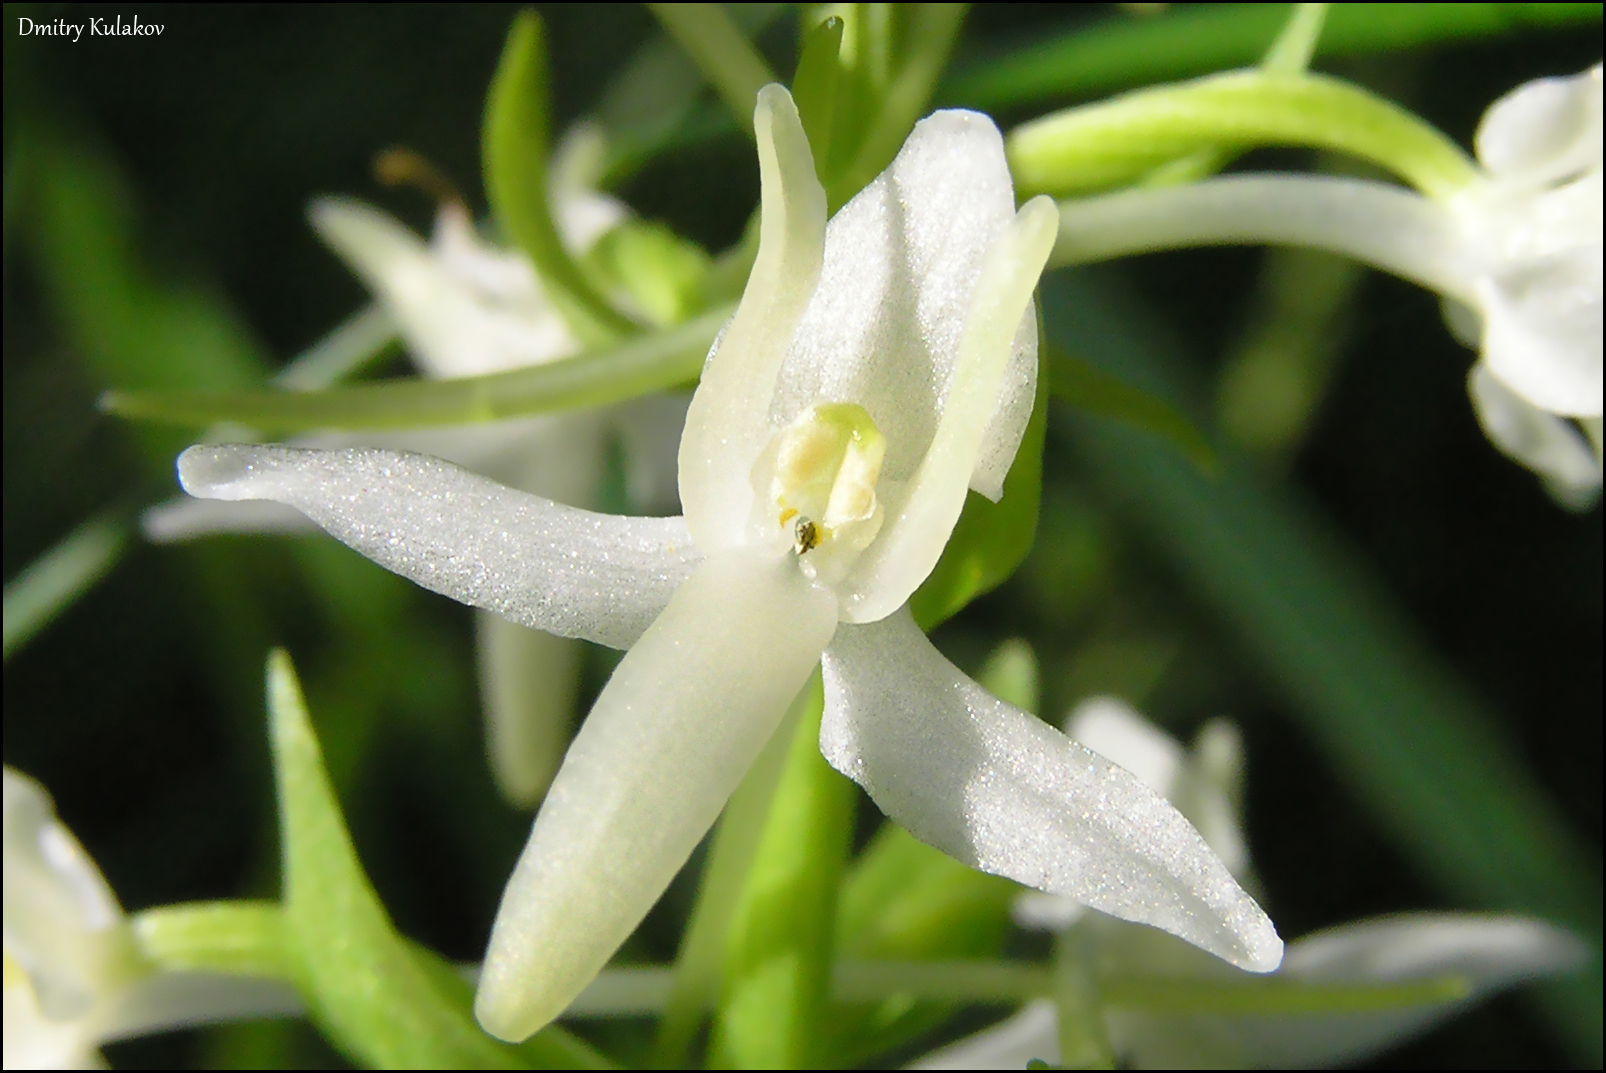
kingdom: Plantae
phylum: Tracheophyta
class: Liliopsida
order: Asparagales
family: Orchidaceae
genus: Platanthera
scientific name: Platanthera bifolia
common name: Lesser butterfly-orchid
